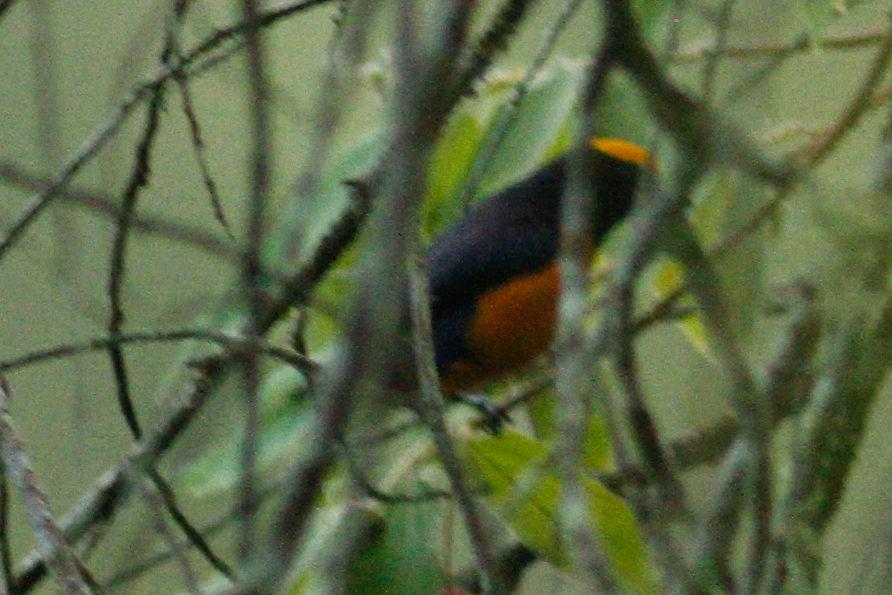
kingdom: Animalia
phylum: Chordata
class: Aves
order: Passeriformes
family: Fringillidae
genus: Euphonia
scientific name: Euphonia saturata
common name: Orange-crowned euphonia
